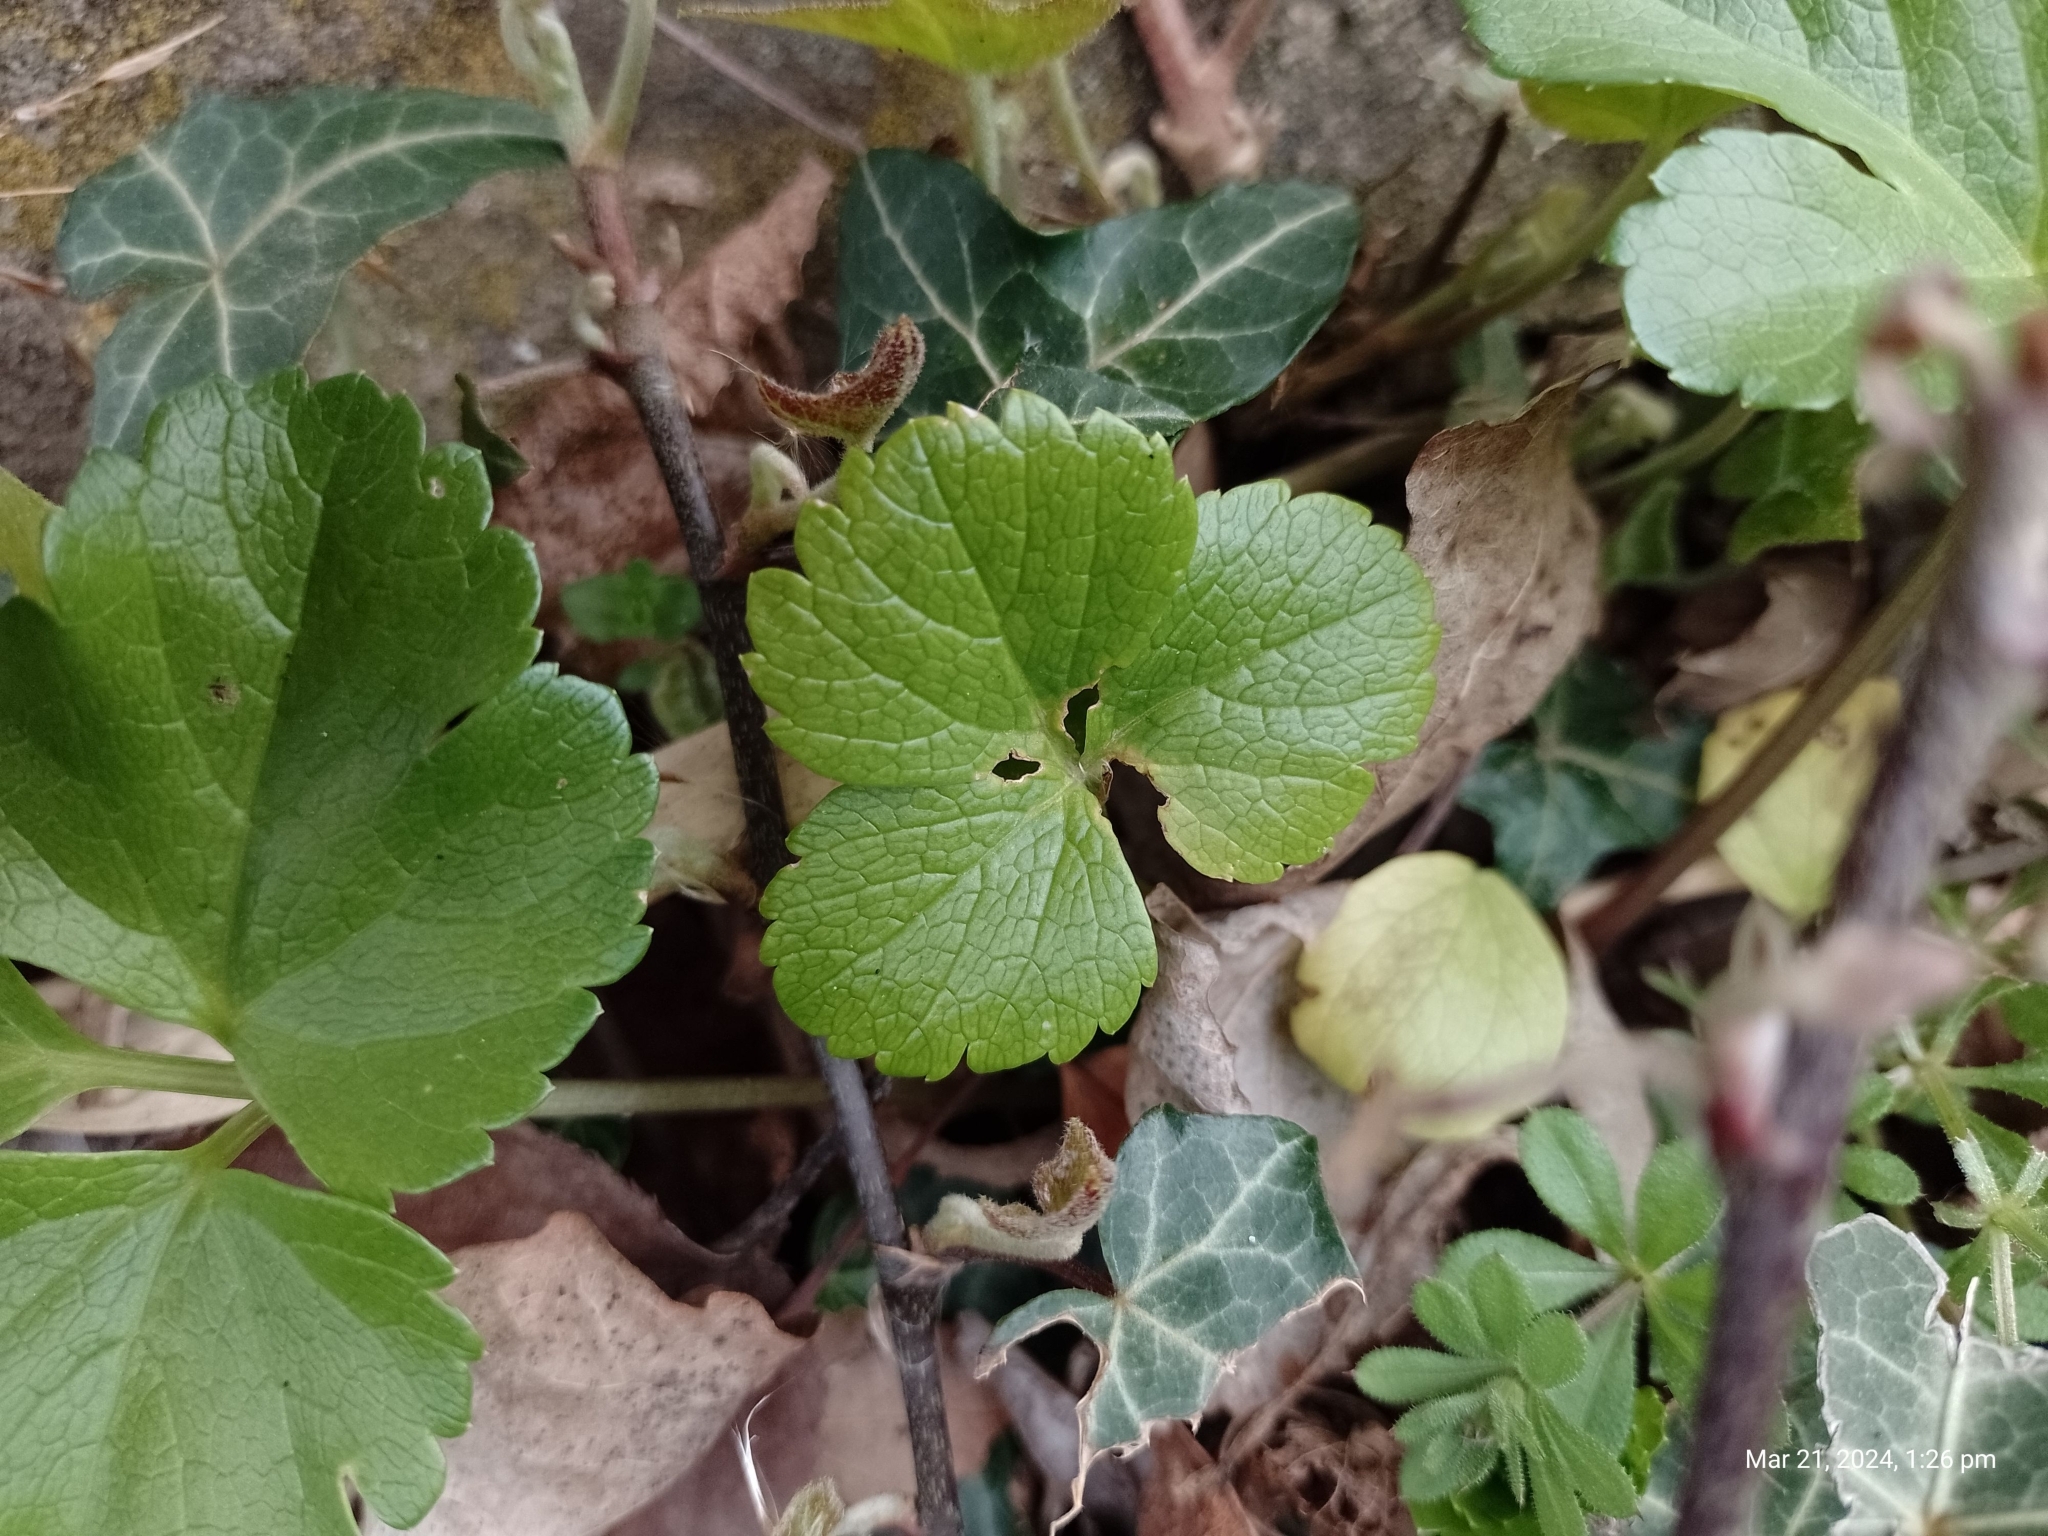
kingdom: Plantae
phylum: Tracheophyta
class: Magnoliopsida
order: Apiales
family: Apiaceae
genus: Smyrnium
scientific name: Smyrnium olusatrum
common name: Alexanders
